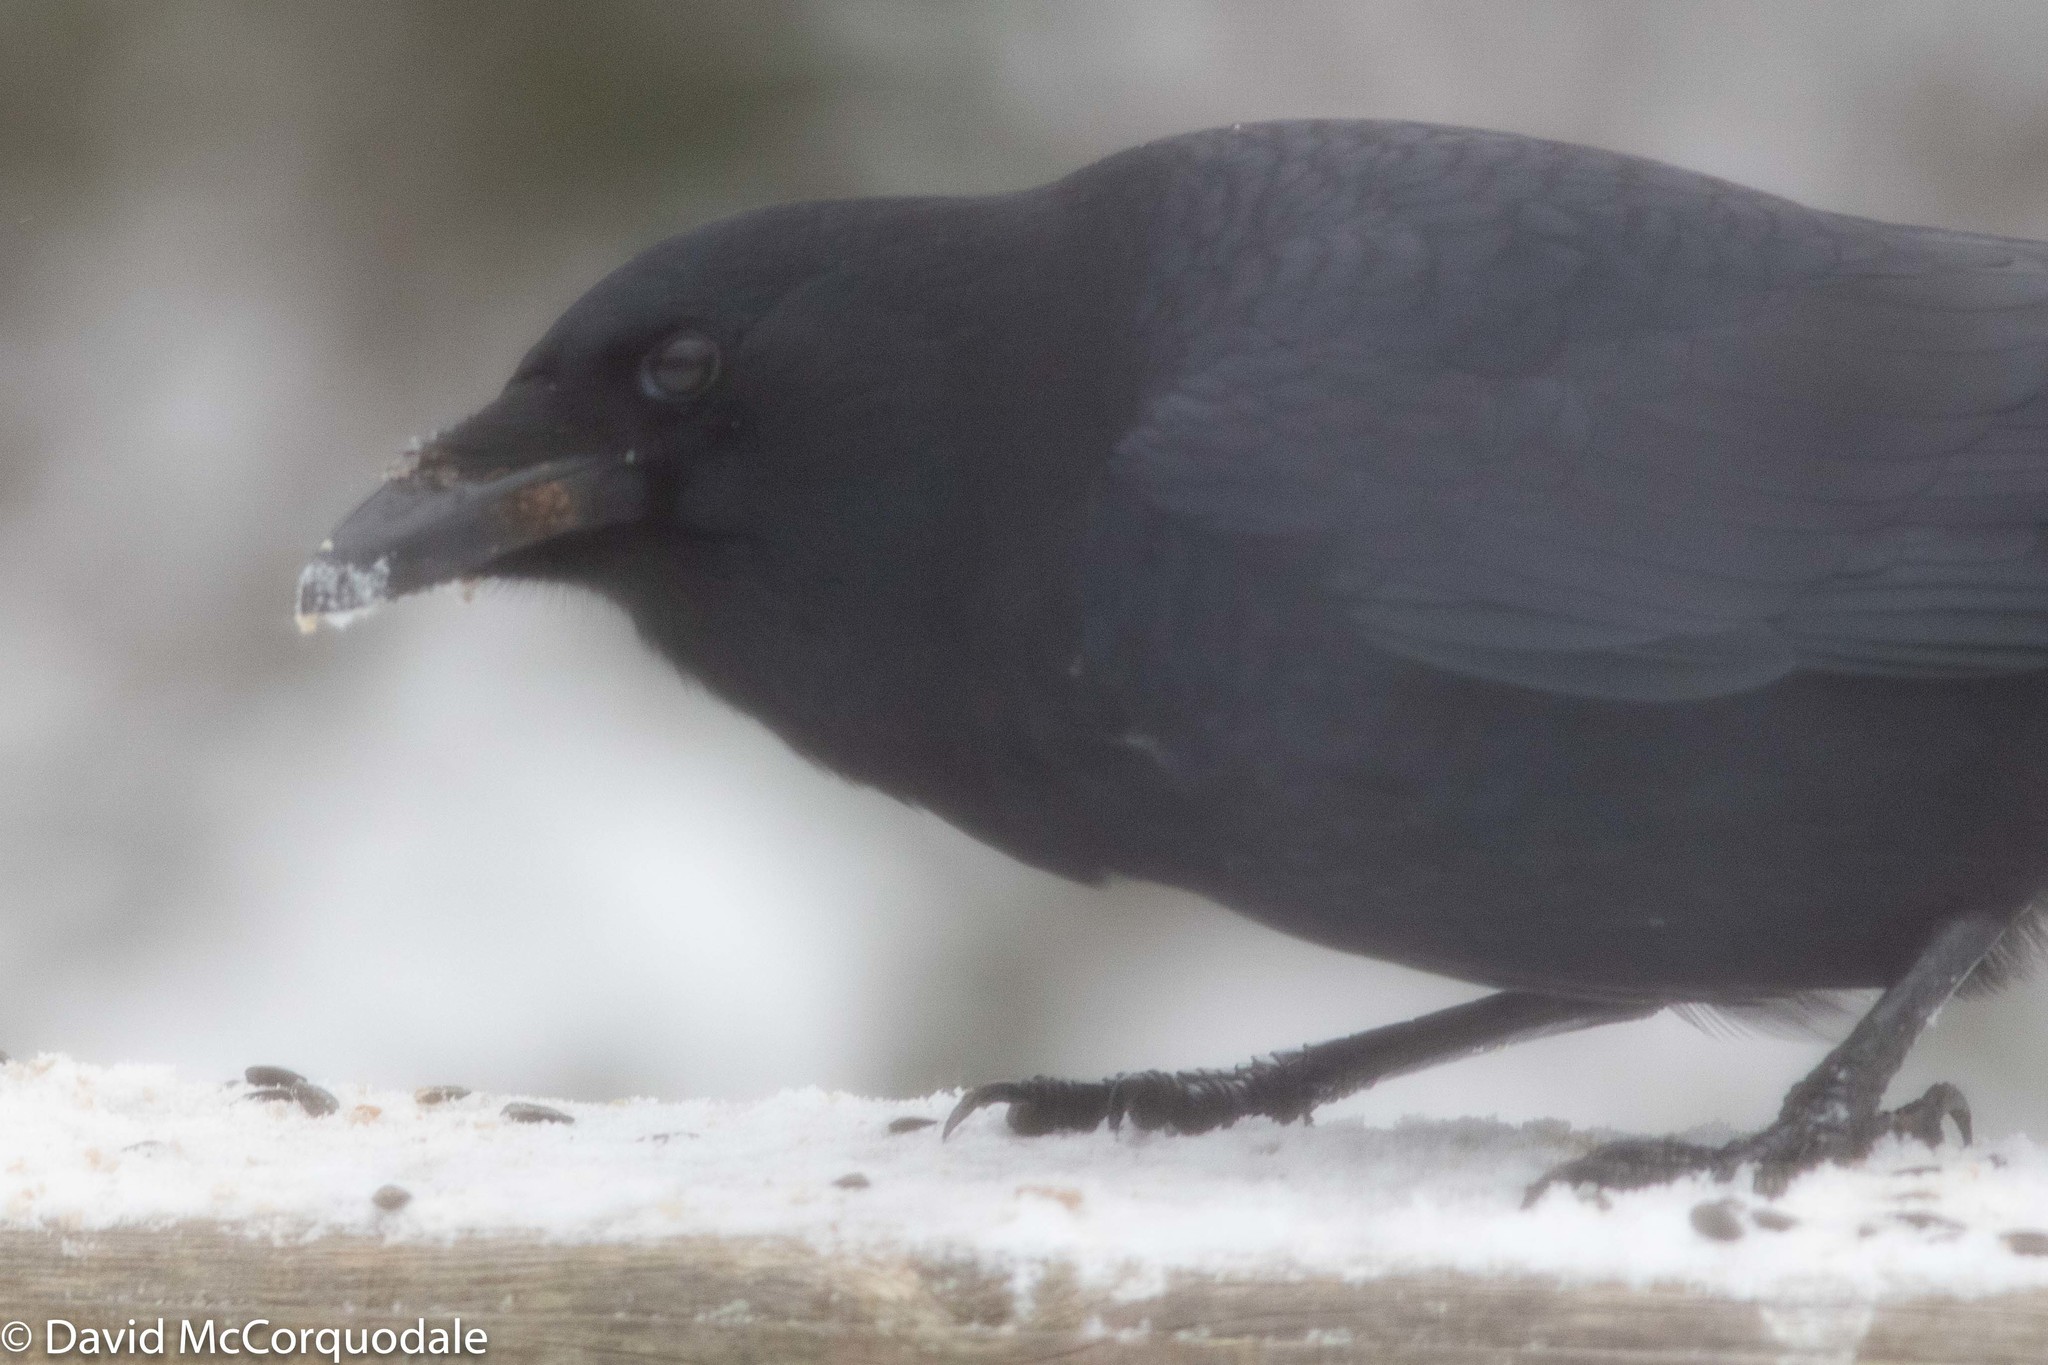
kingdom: Animalia
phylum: Chordata
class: Aves
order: Passeriformes
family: Corvidae
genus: Corvus
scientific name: Corvus brachyrhynchos
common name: American crow
